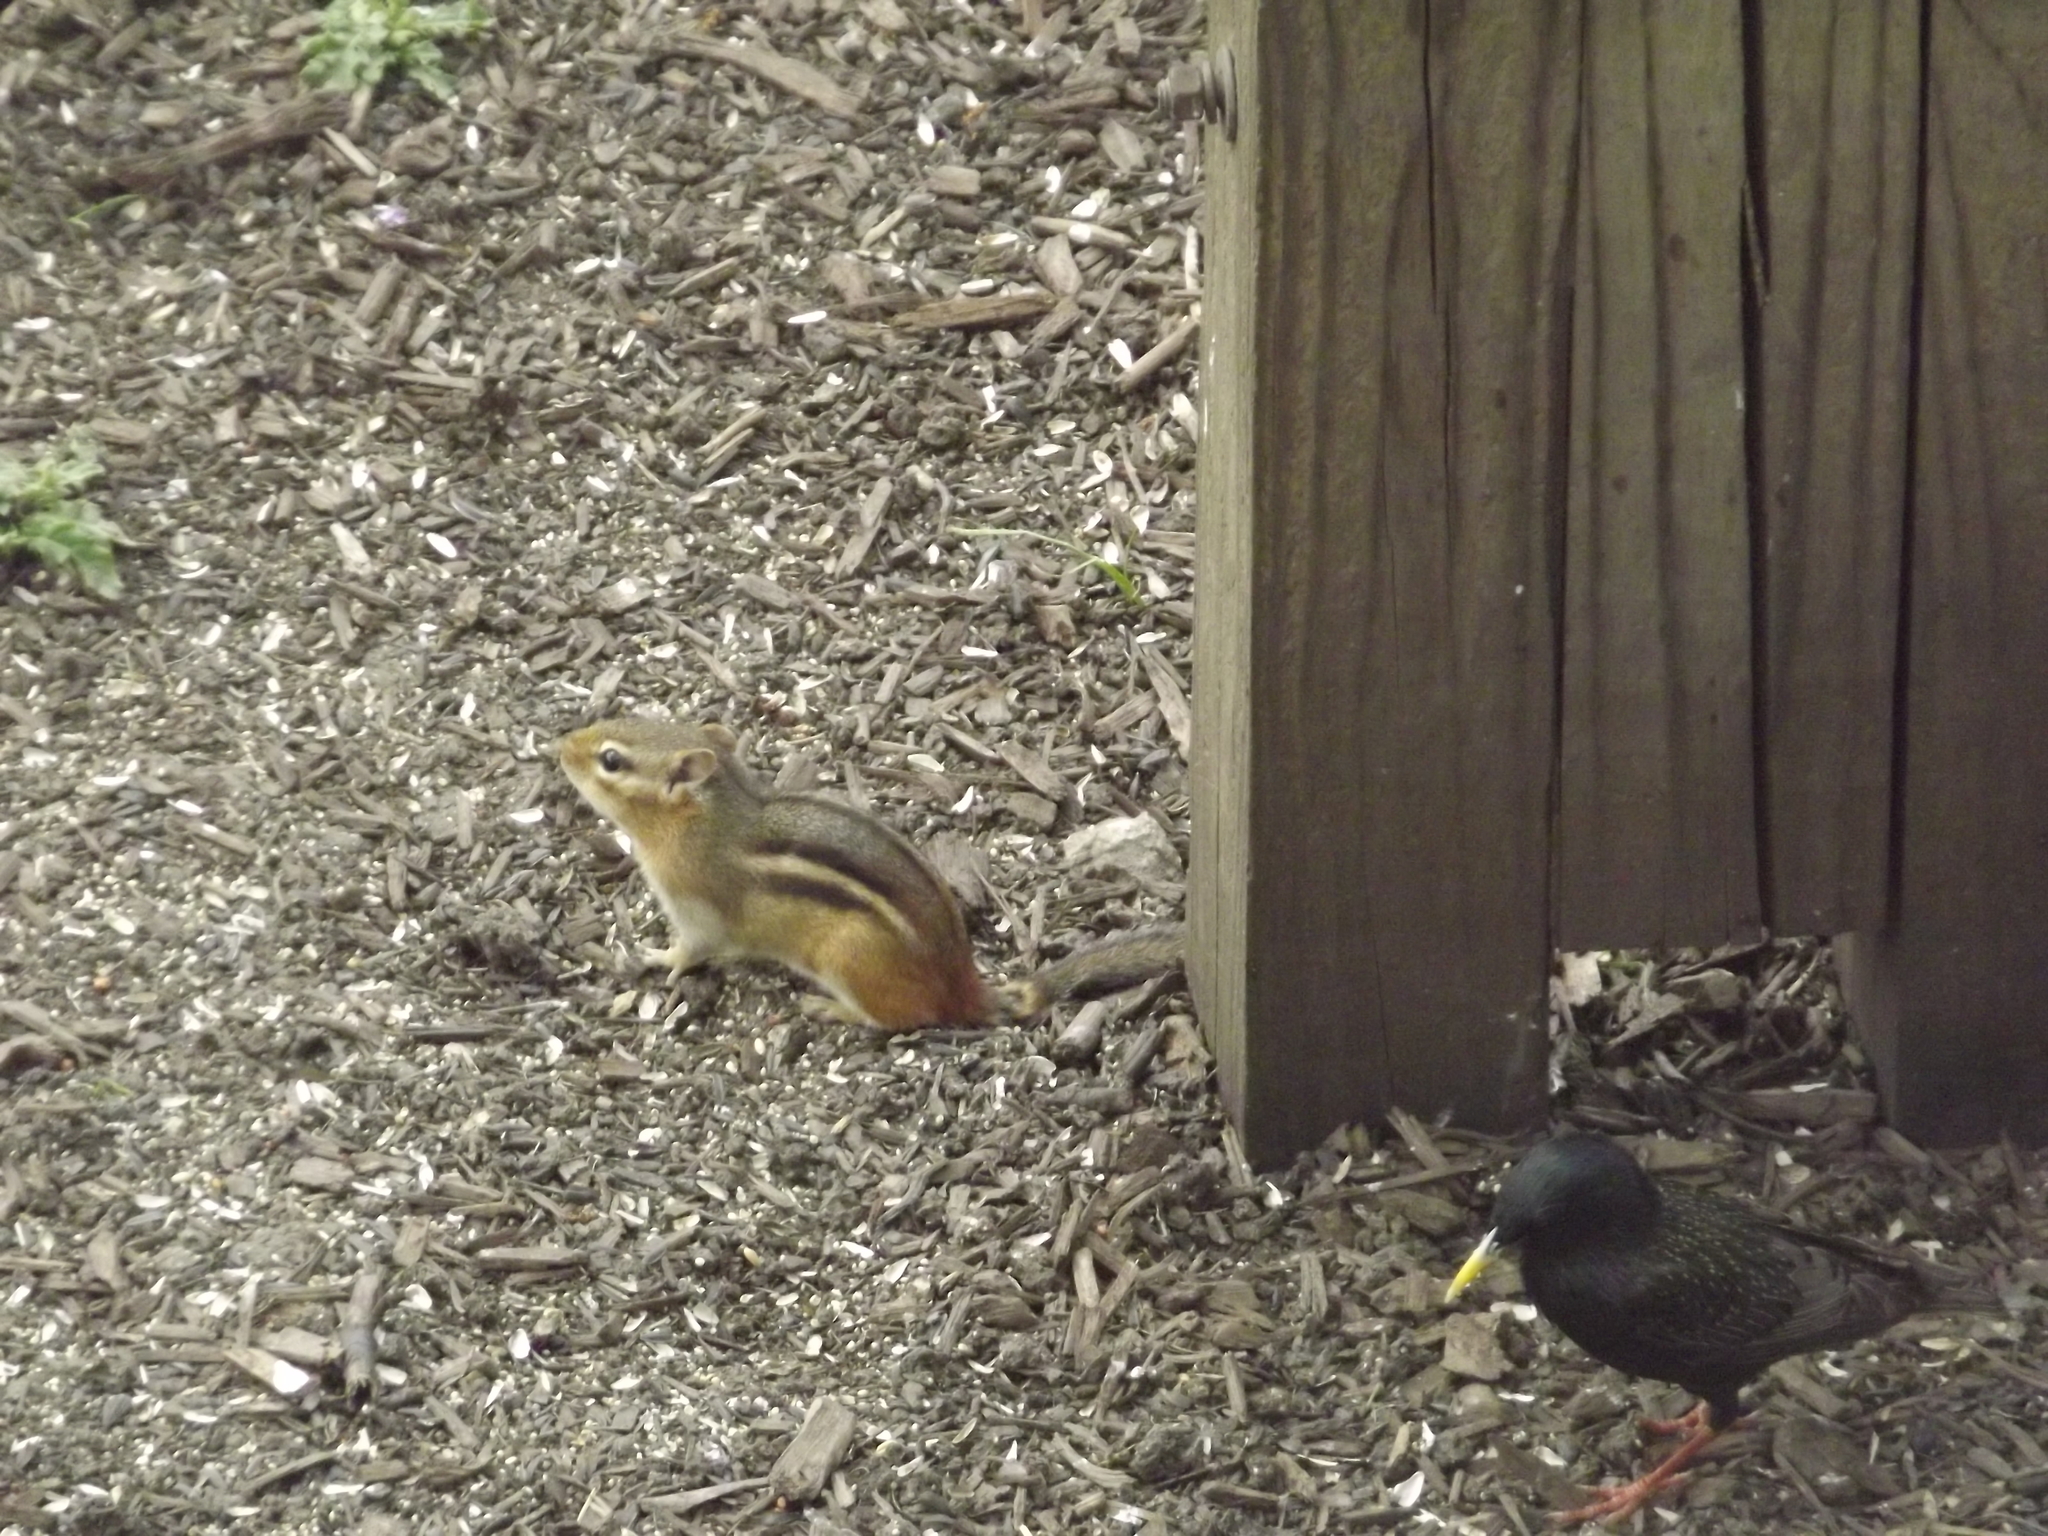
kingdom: Animalia
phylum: Chordata
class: Aves
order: Passeriformes
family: Sturnidae
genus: Sturnus
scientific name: Sturnus vulgaris
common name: Common starling
